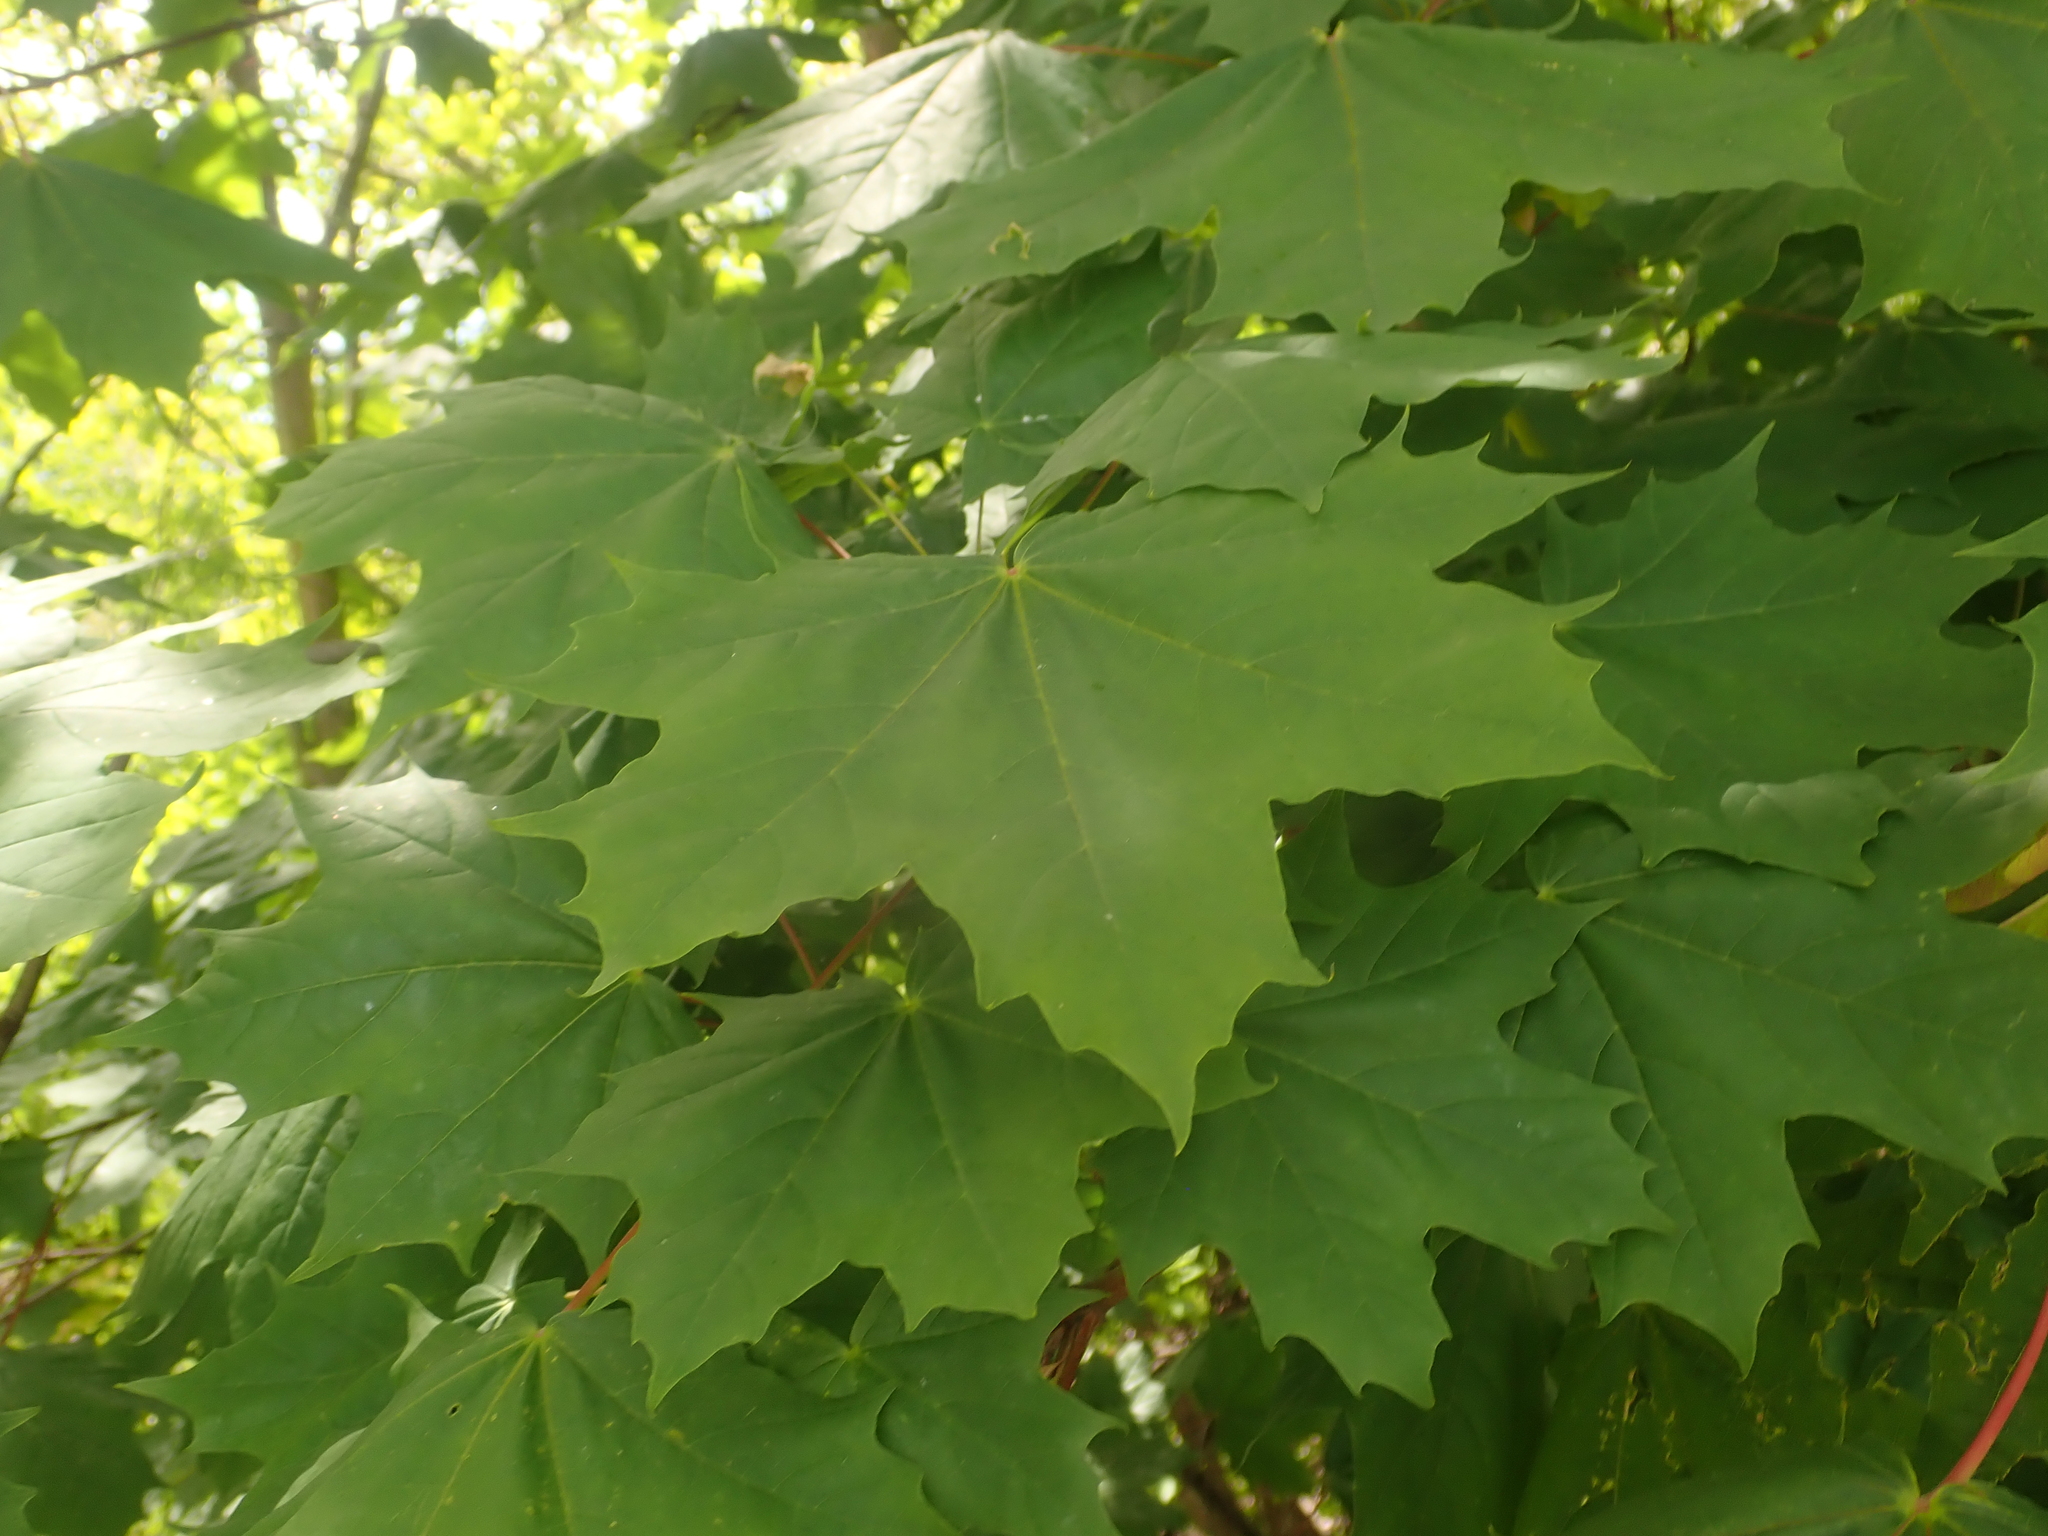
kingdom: Plantae
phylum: Tracheophyta
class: Magnoliopsida
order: Sapindales
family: Sapindaceae
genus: Acer
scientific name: Acer platanoides
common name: Norway maple
